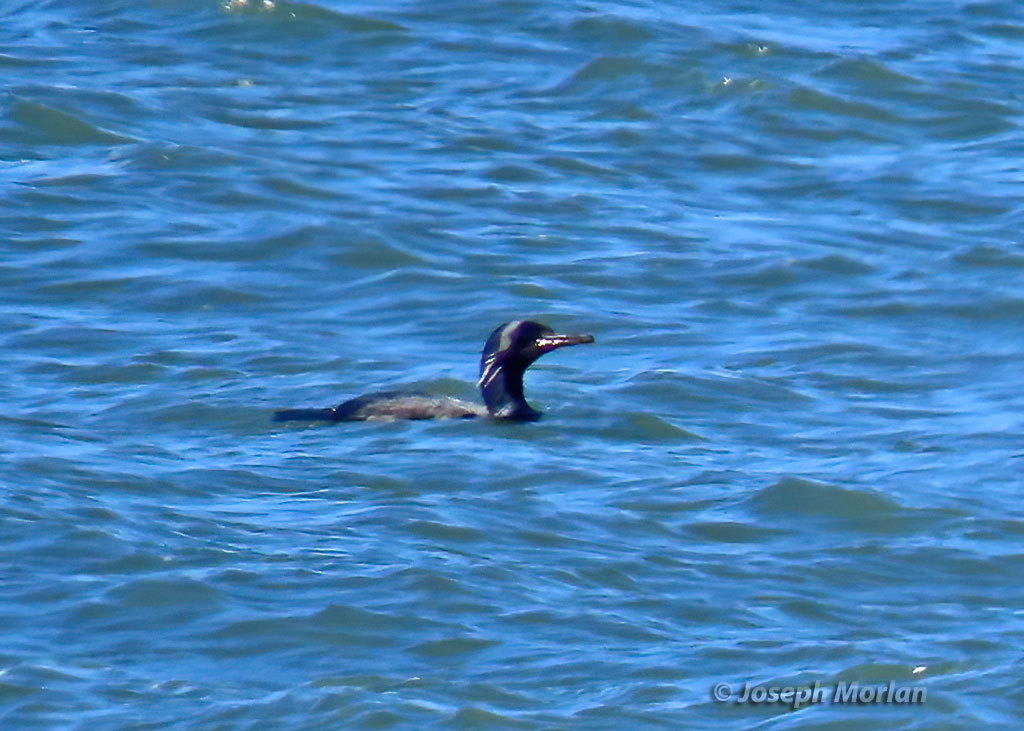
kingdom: Animalia
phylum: Chordata
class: Aves
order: Suliformes
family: Phalacrocoracidae
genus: Urile
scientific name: Urile penicillatus
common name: Brandt's cormorant
